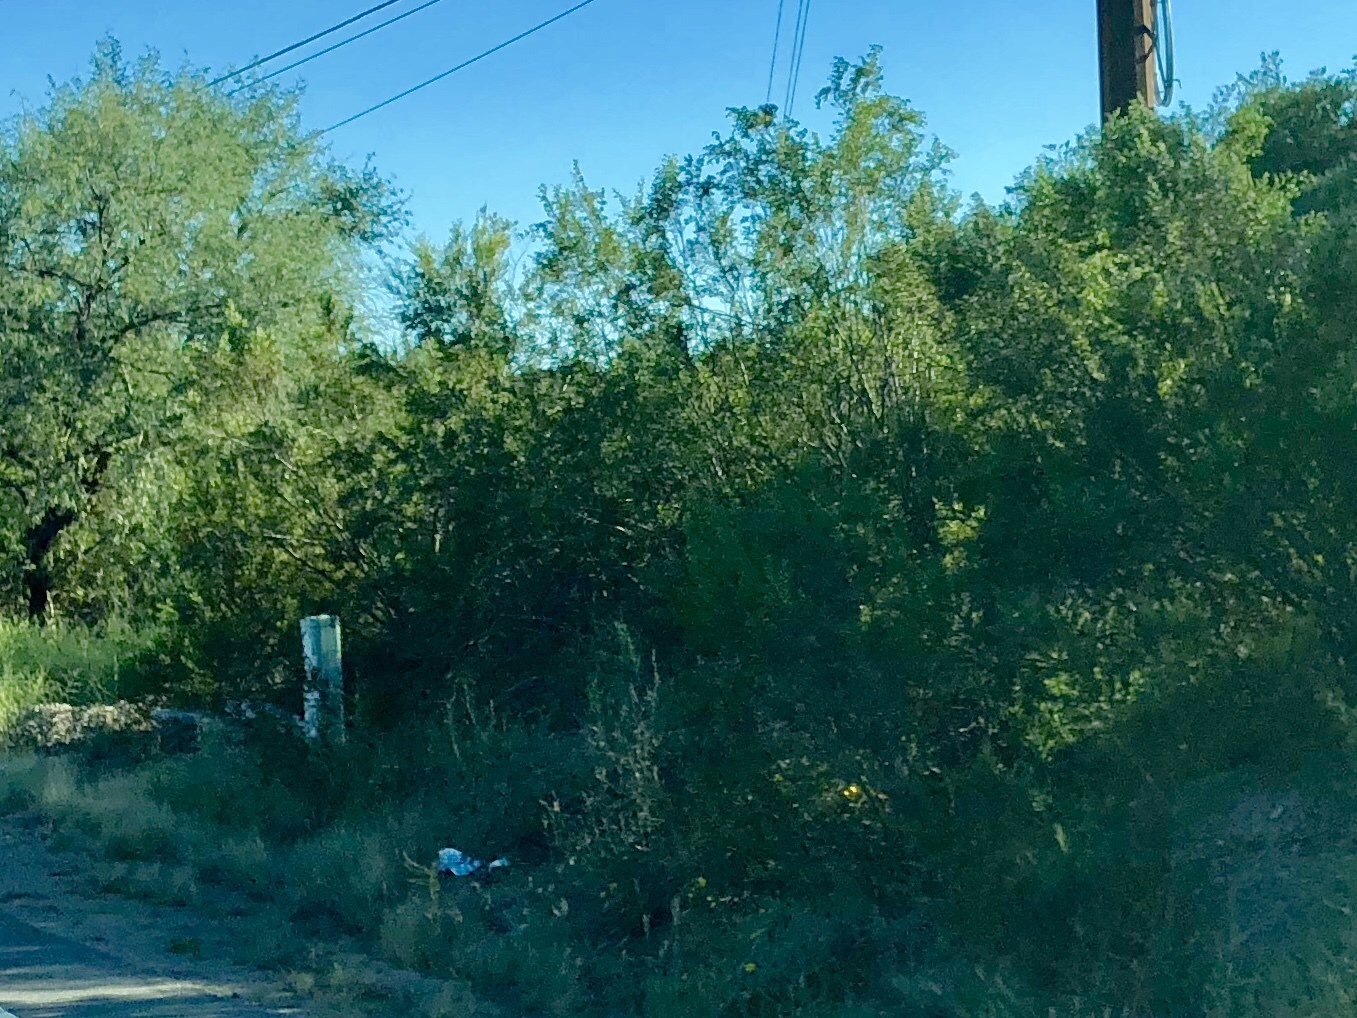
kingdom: Plantae
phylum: Tracheophyta
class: Magnoliopsida
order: Zygophyllales
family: Zygophyllaceae
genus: Larrea
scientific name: Larrea tridentata
